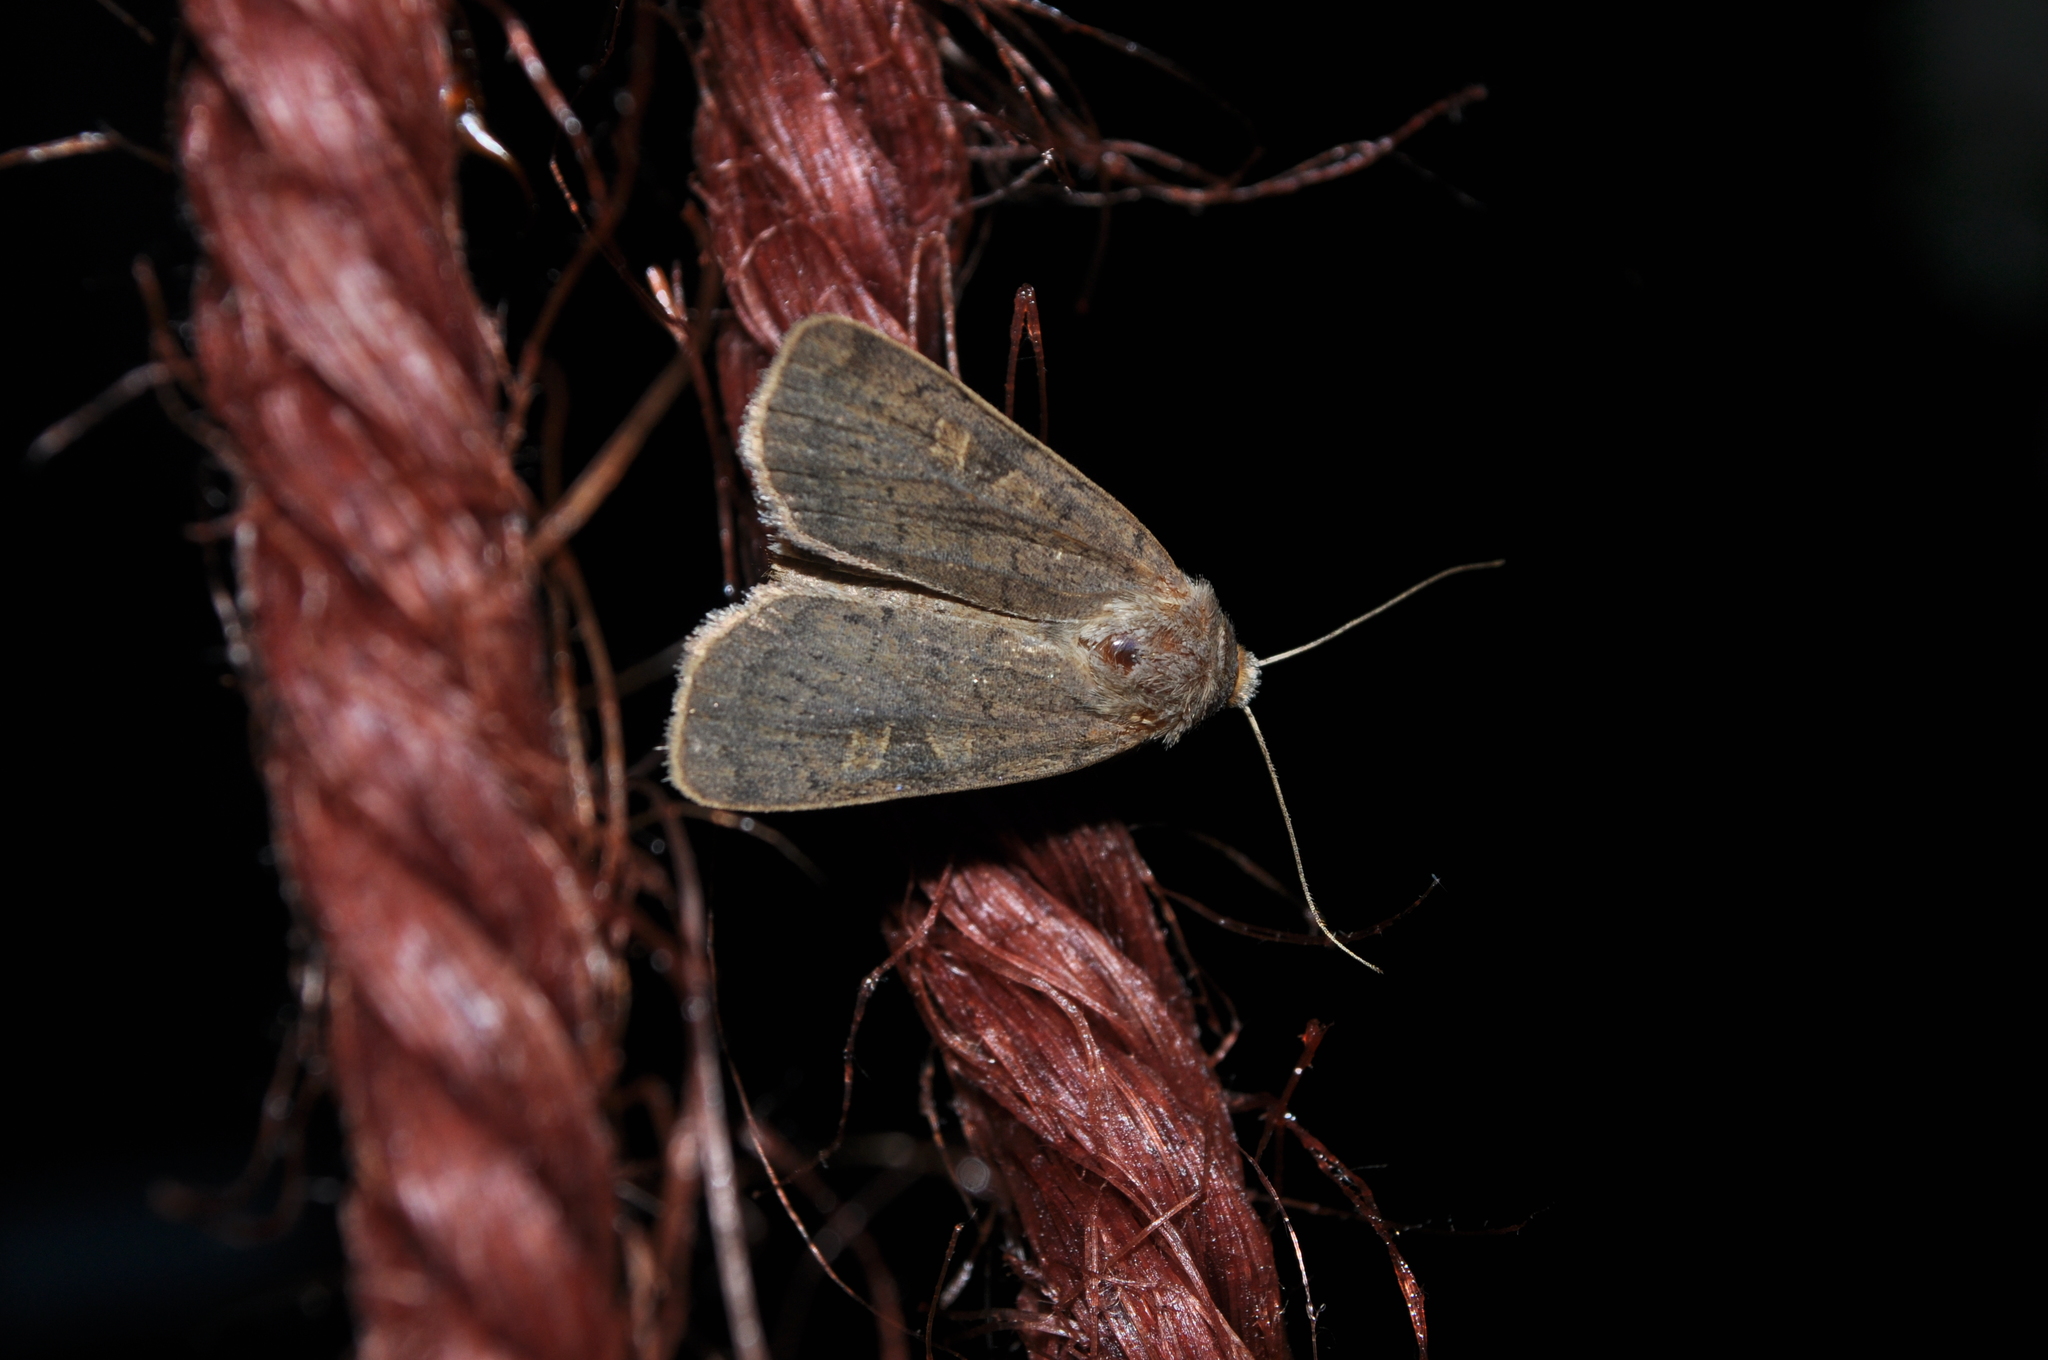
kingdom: Animalia
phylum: Arthropoda
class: Insecta
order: Lepidoptera
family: Noctuidae
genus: Xestia
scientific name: Xestia xanthographa
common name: Square-spot rustic
